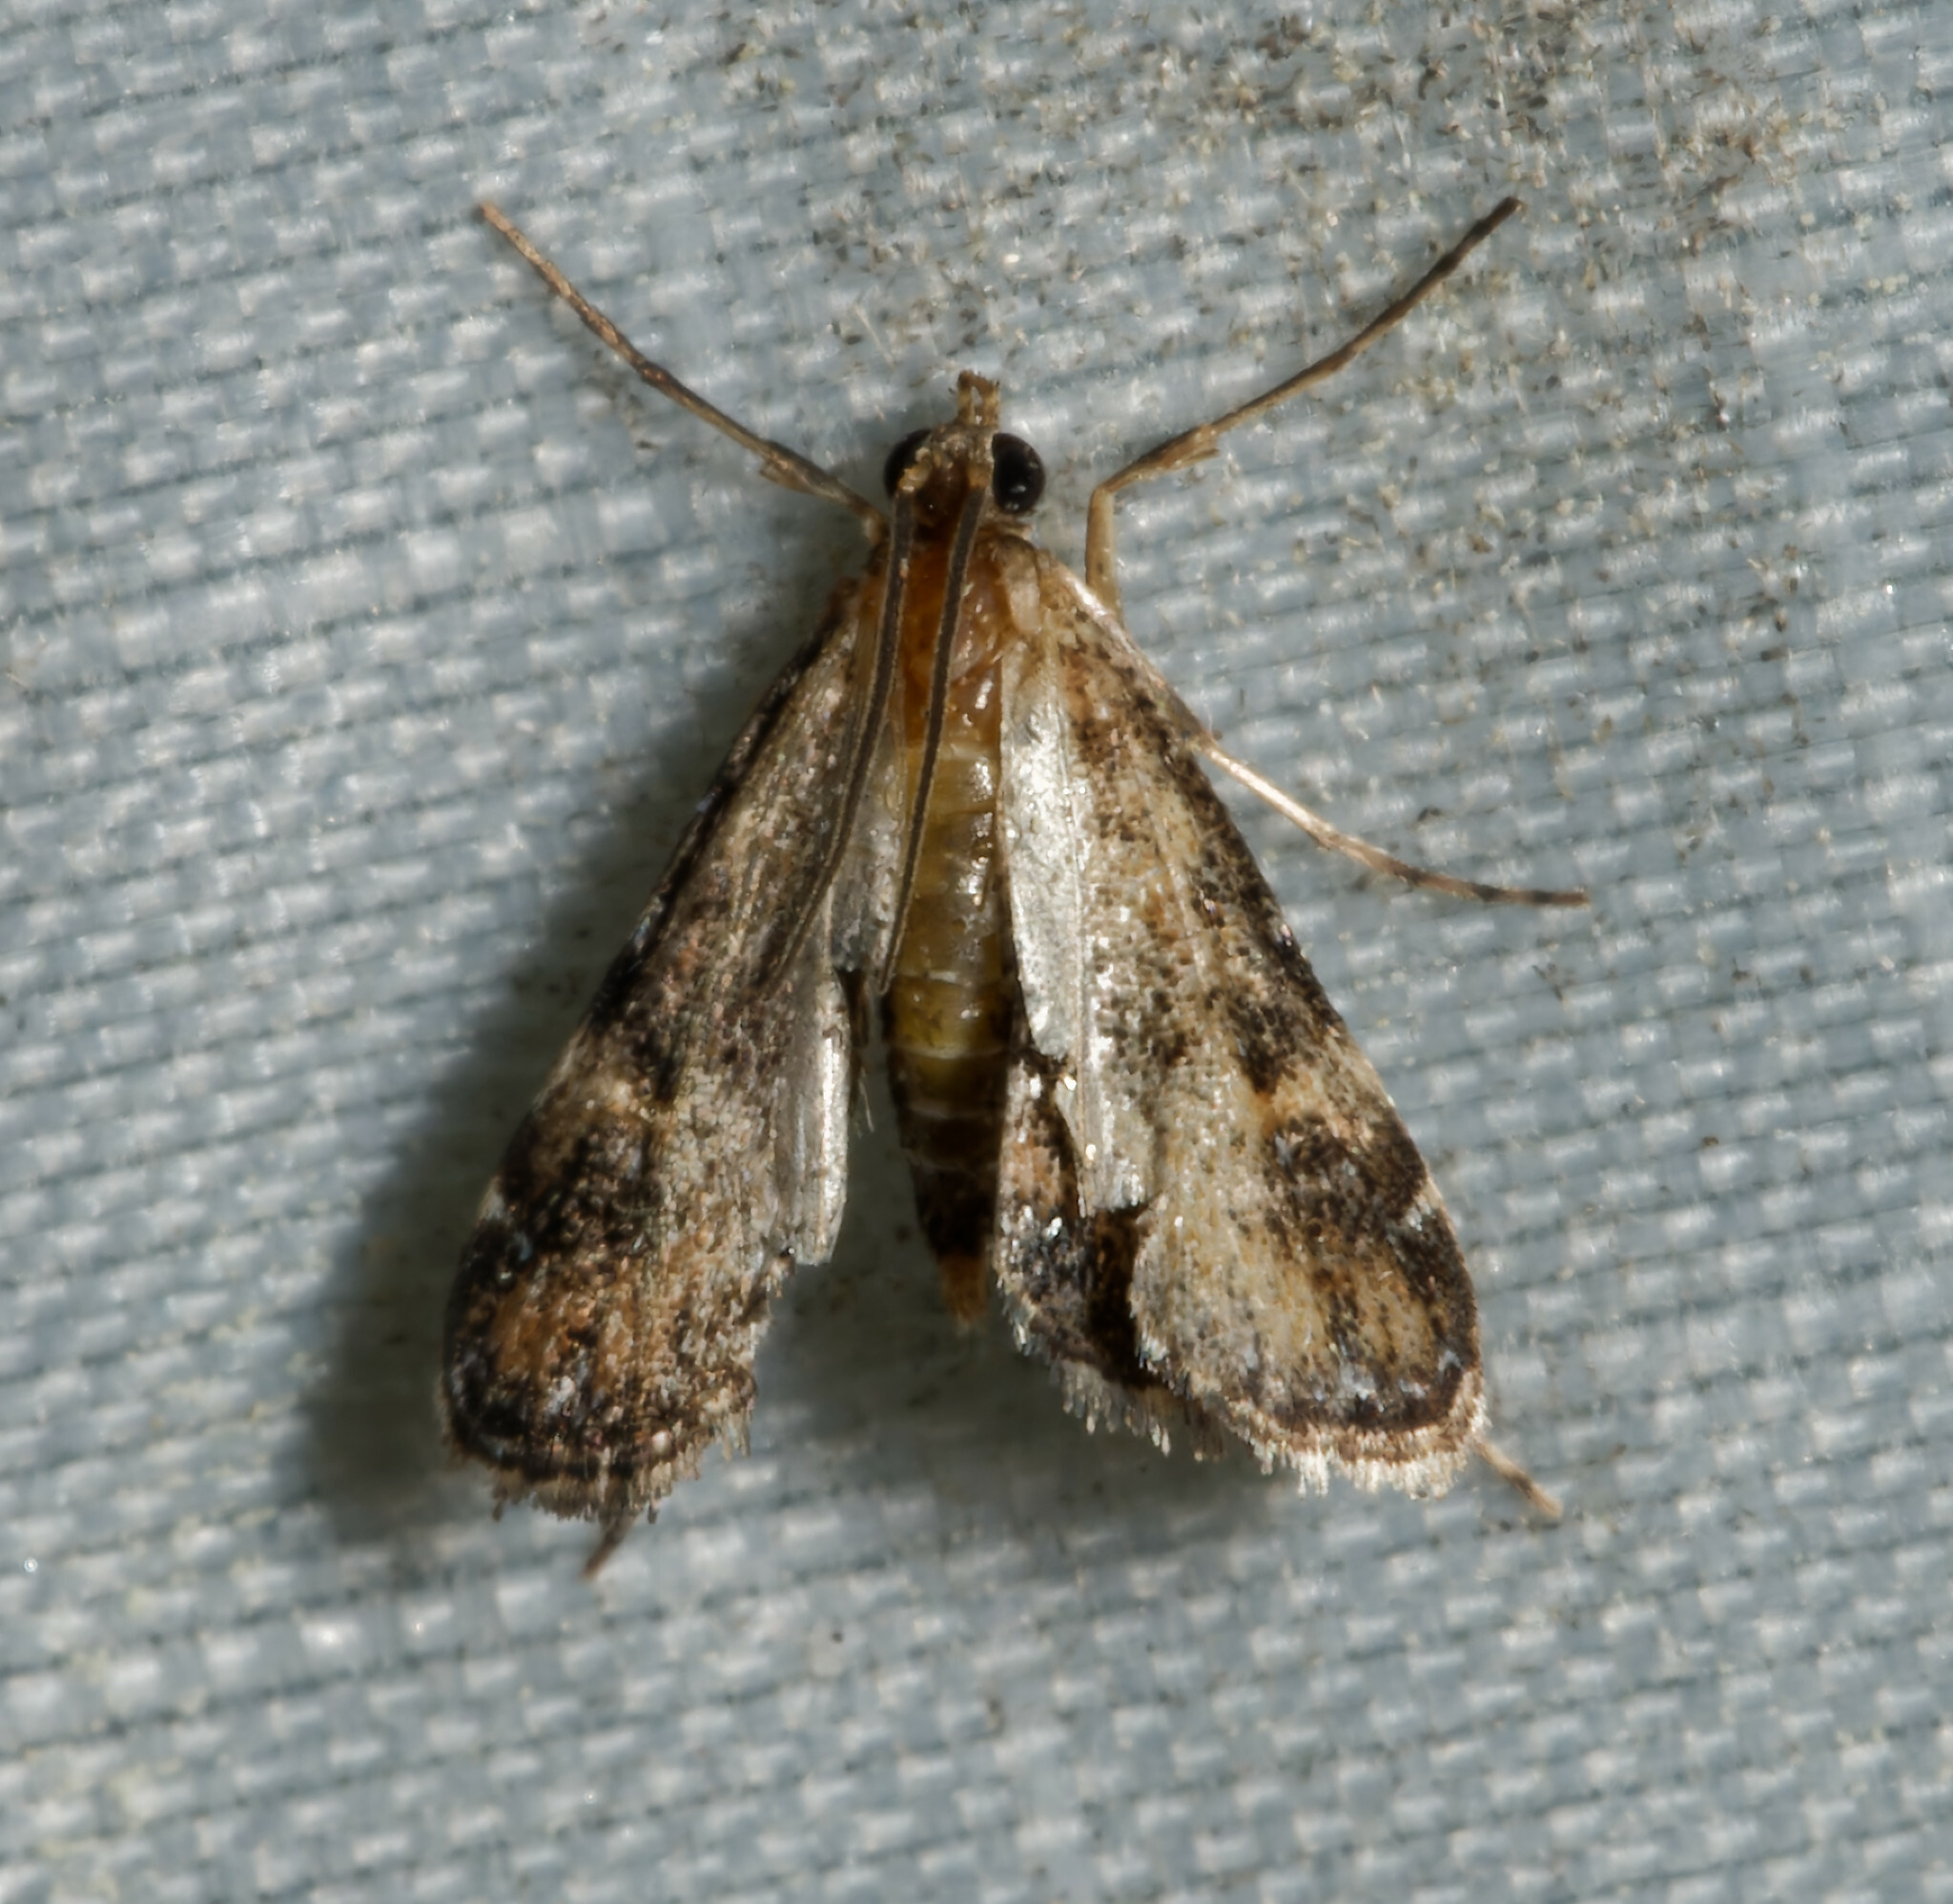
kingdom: Animalia
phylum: Arthropoda
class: Insecta
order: Lepidoptera
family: Crambidae
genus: Elophila
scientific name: Elophila obliteralis
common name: Waterlily leafcutter moth
